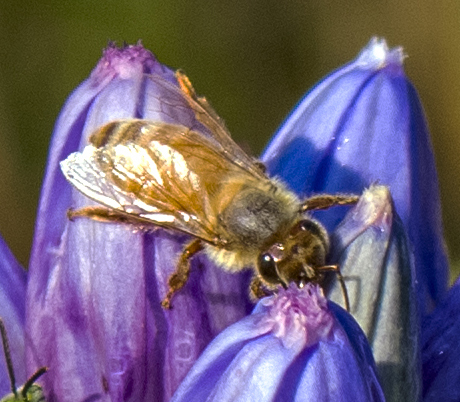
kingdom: Animalia
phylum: Arthropoda
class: Insecta
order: Hymenoptera
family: Apidae
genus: Apis
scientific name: Apis mellifera
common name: Honey bee
